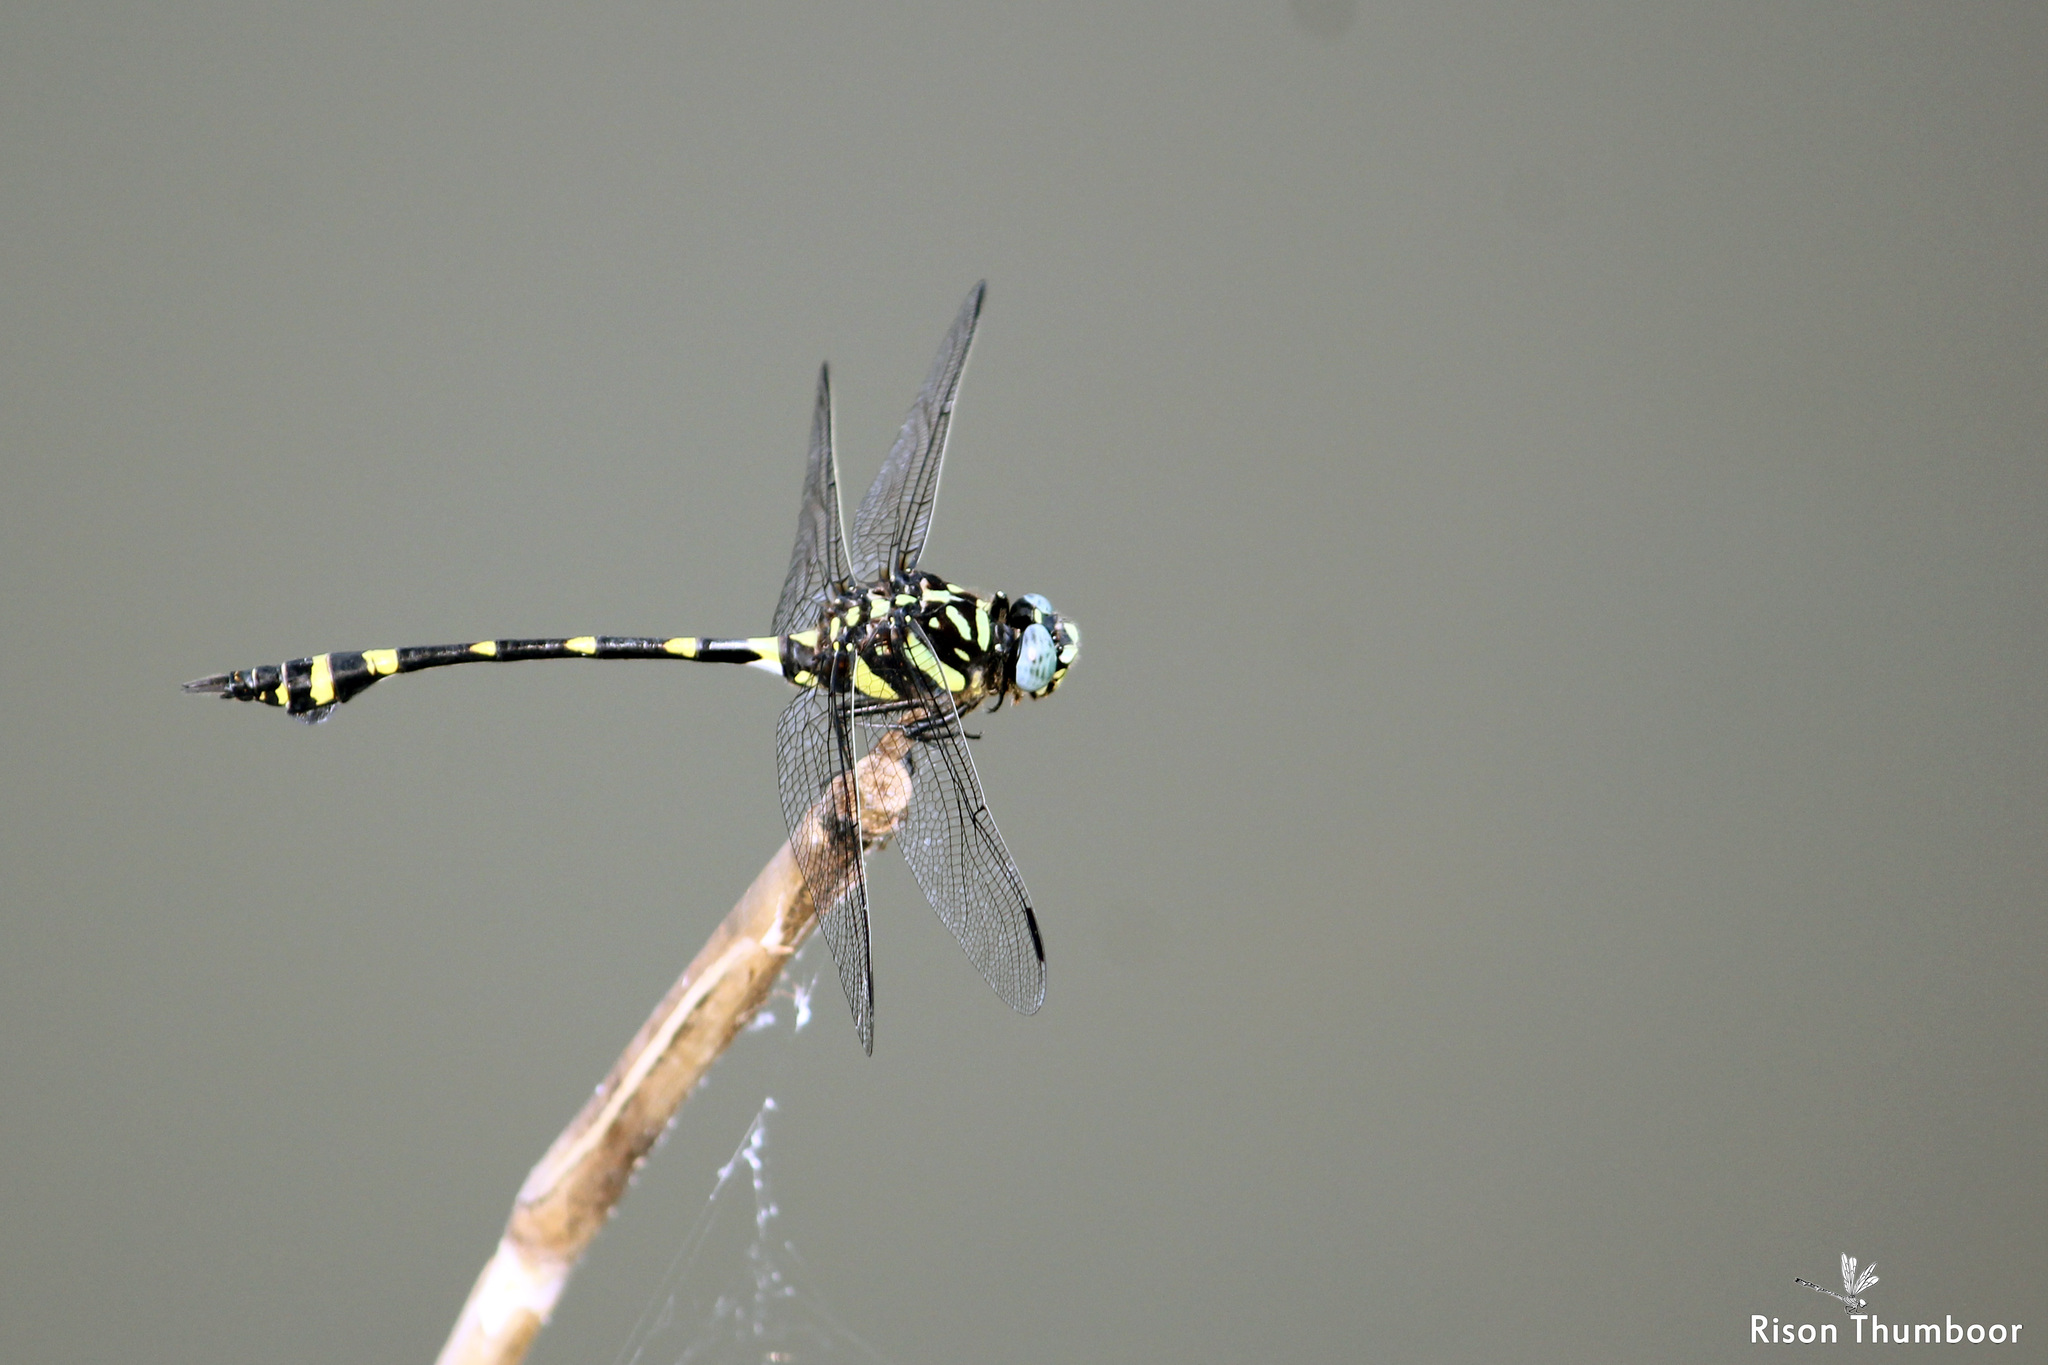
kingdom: Animalia
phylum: Arthropoda
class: Insecta
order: Odonata
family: Gomphidae
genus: Ictinogomphus
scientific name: Ictinogomphus rapax
